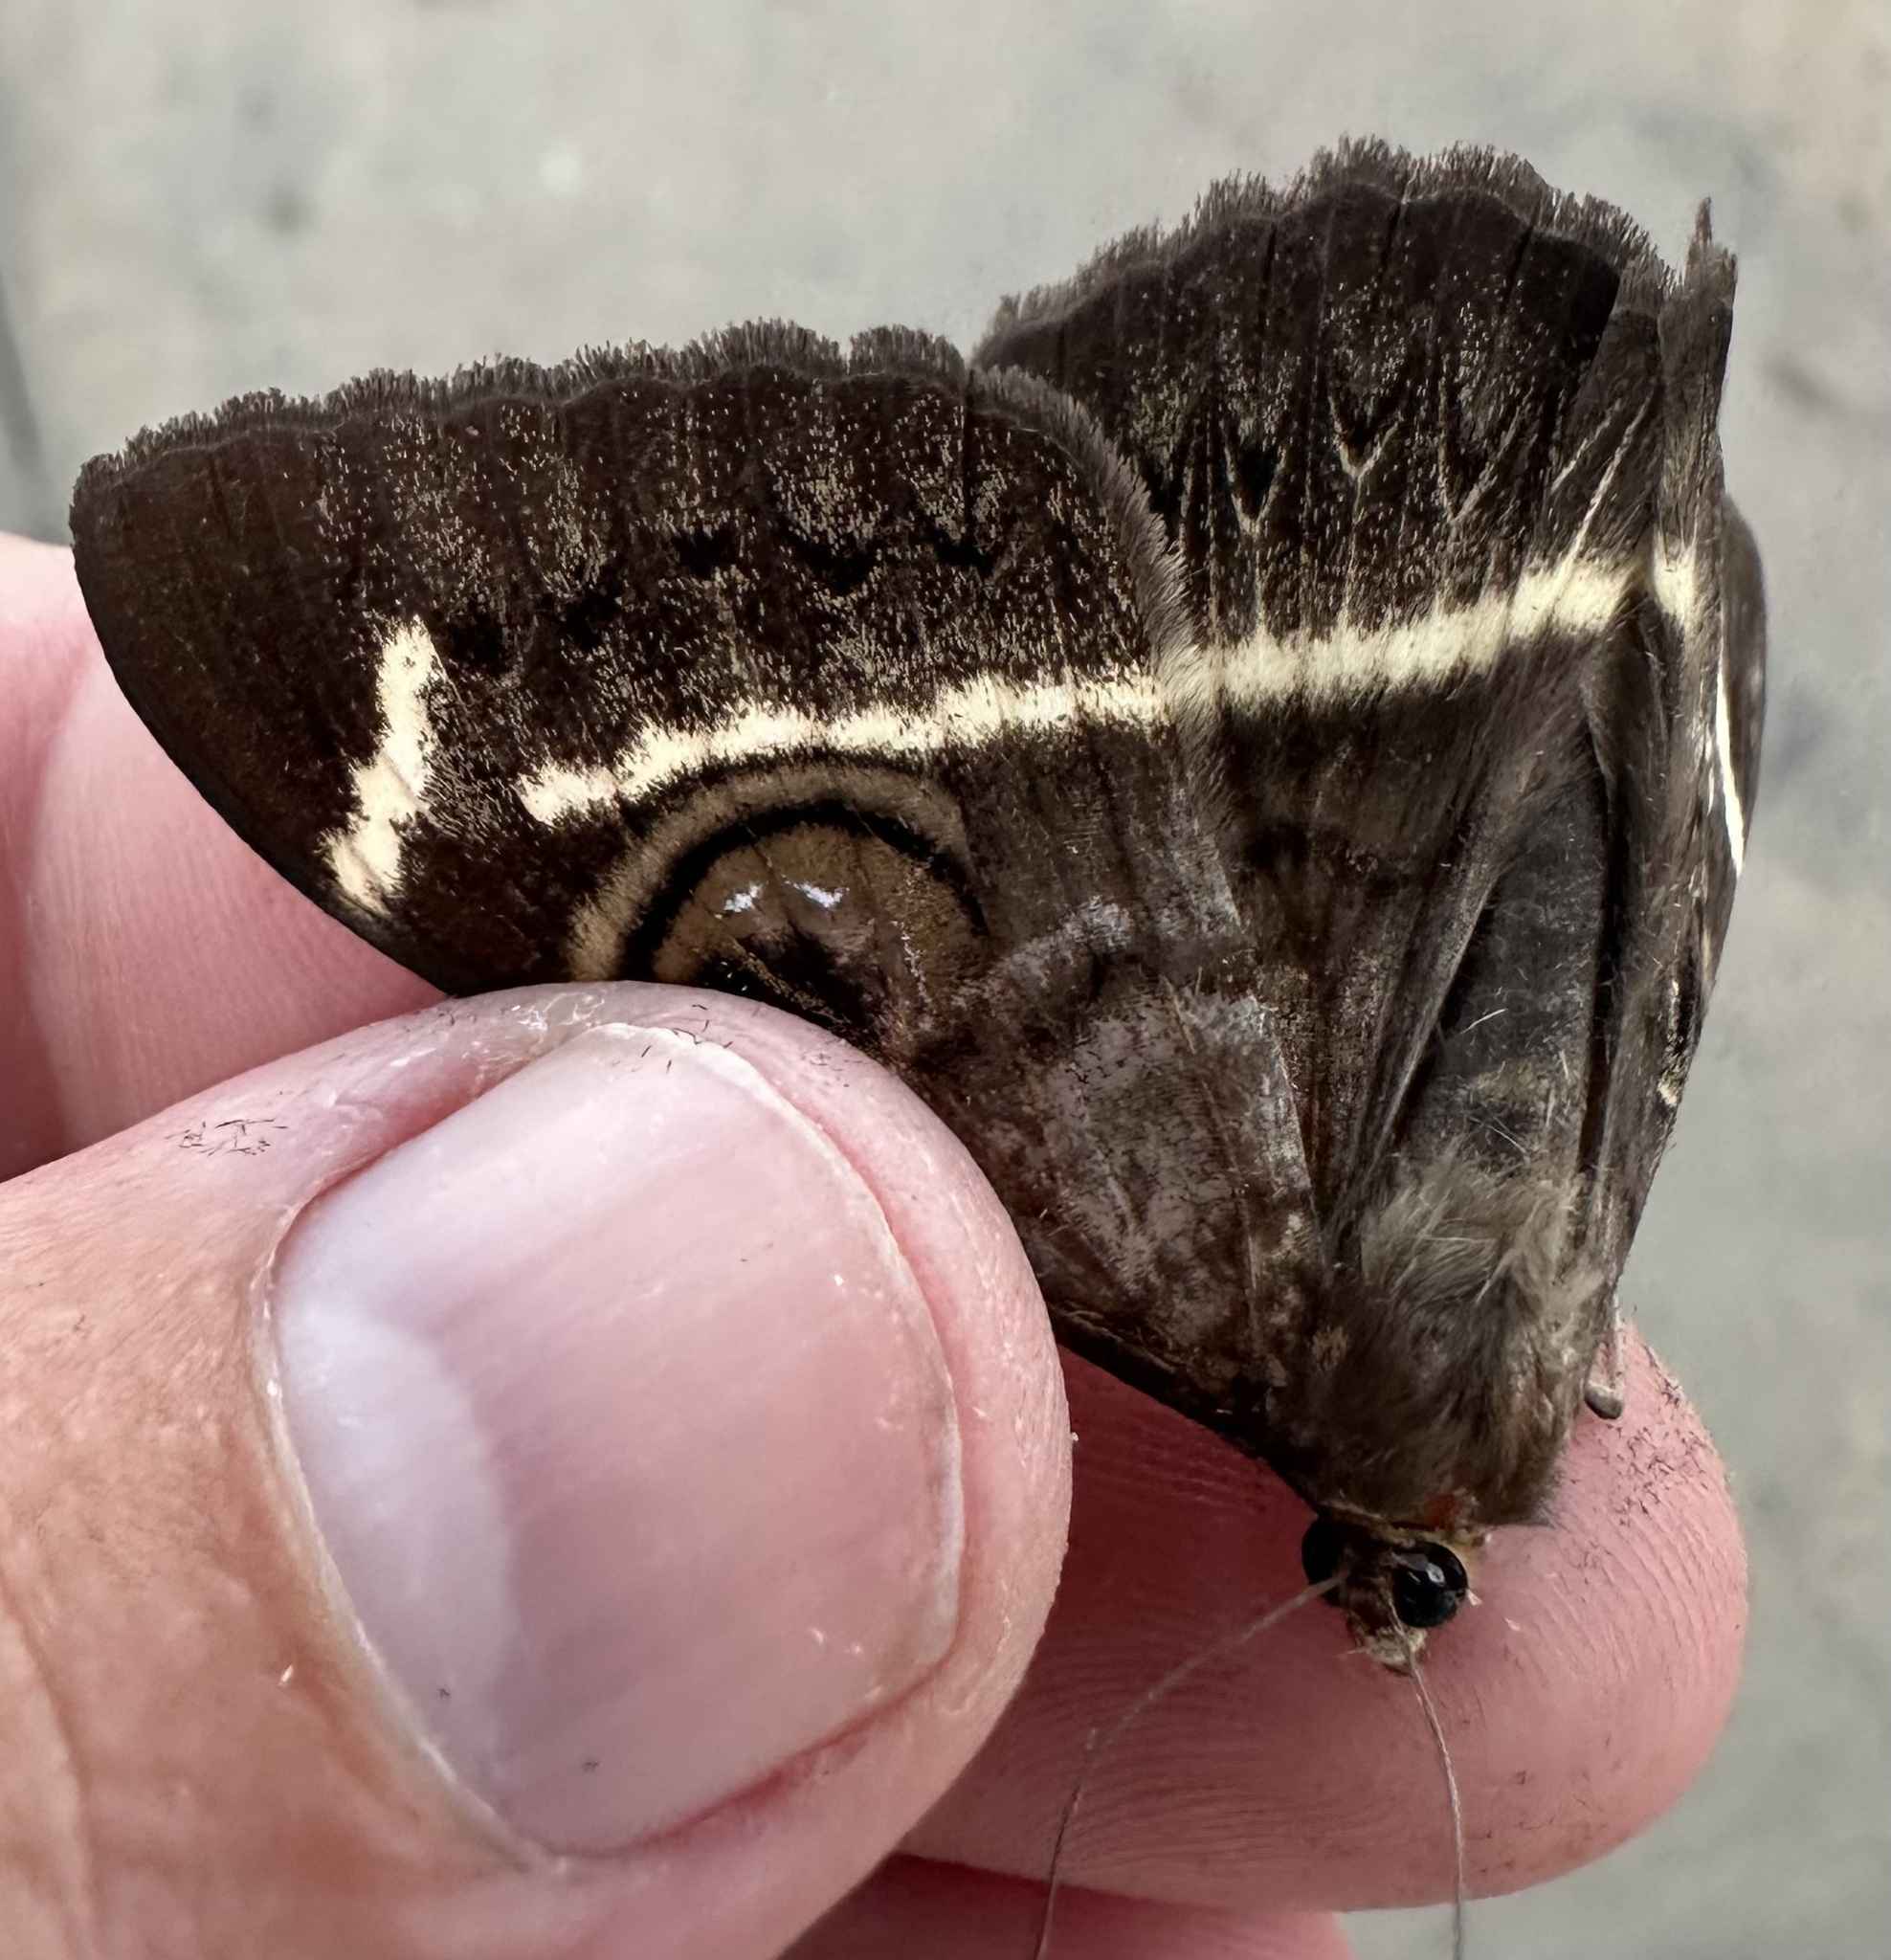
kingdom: Animalia
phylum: Arthropoda
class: Insecta
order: Lepidoptera
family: Erebidae
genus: Cyligramma
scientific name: Cyligramma latona
